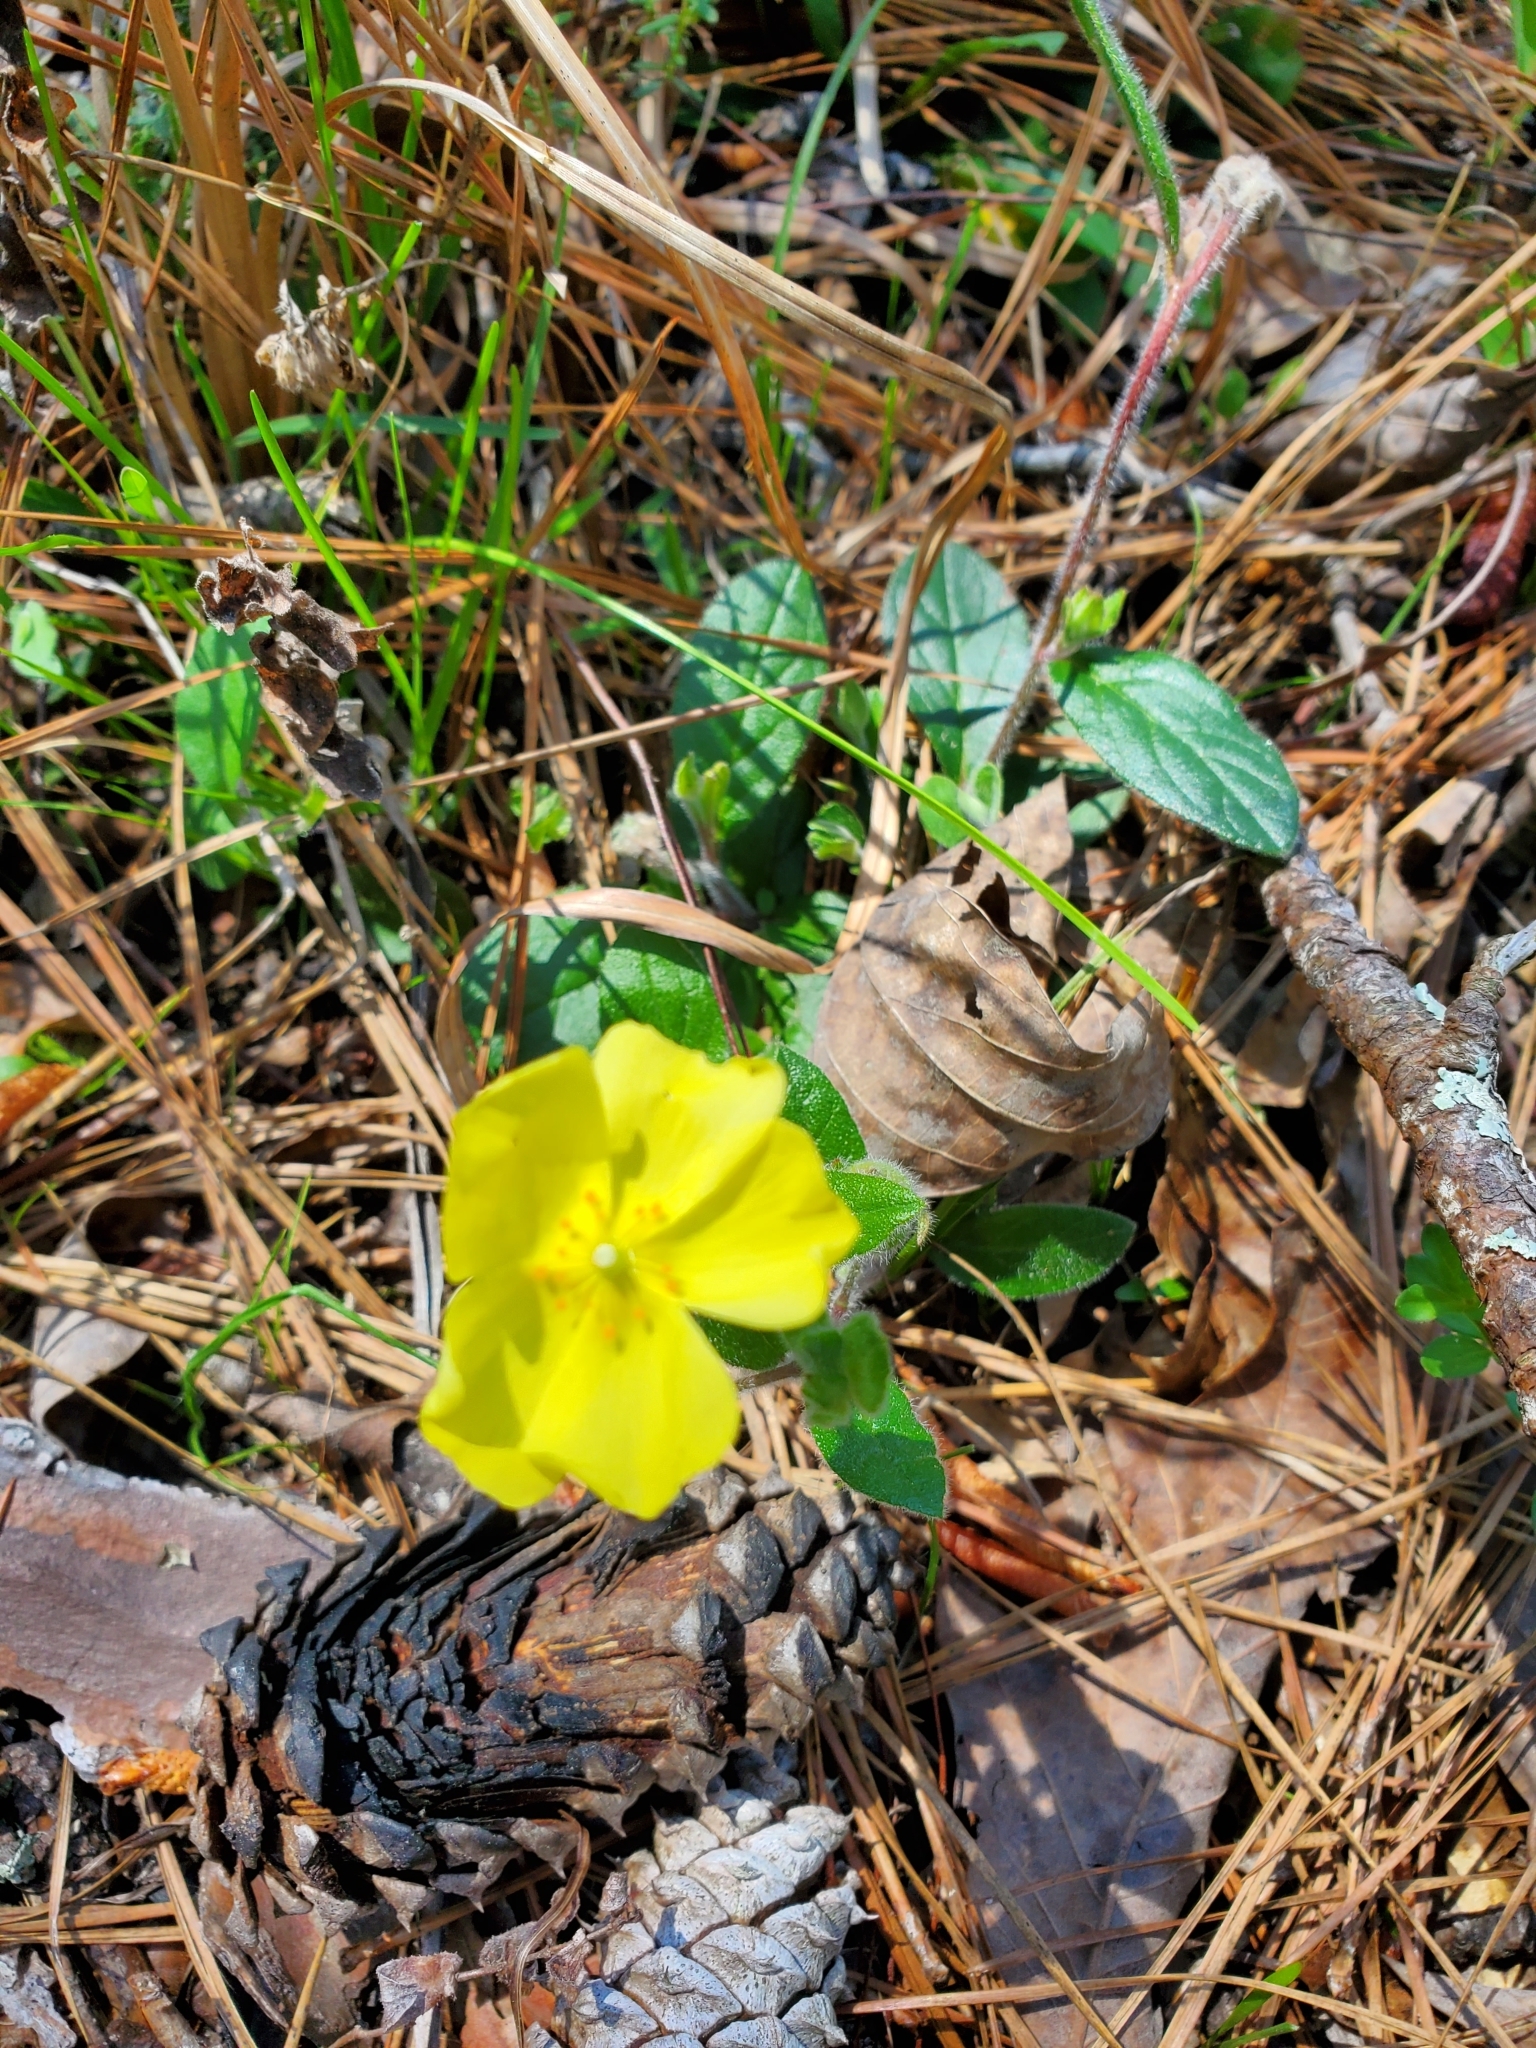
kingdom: Plantae
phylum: Tracheophyta
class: Magnoliopsida
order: Malvales
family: Cistaceae
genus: Crocanthemum
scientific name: Crocanthemum carolinianum
